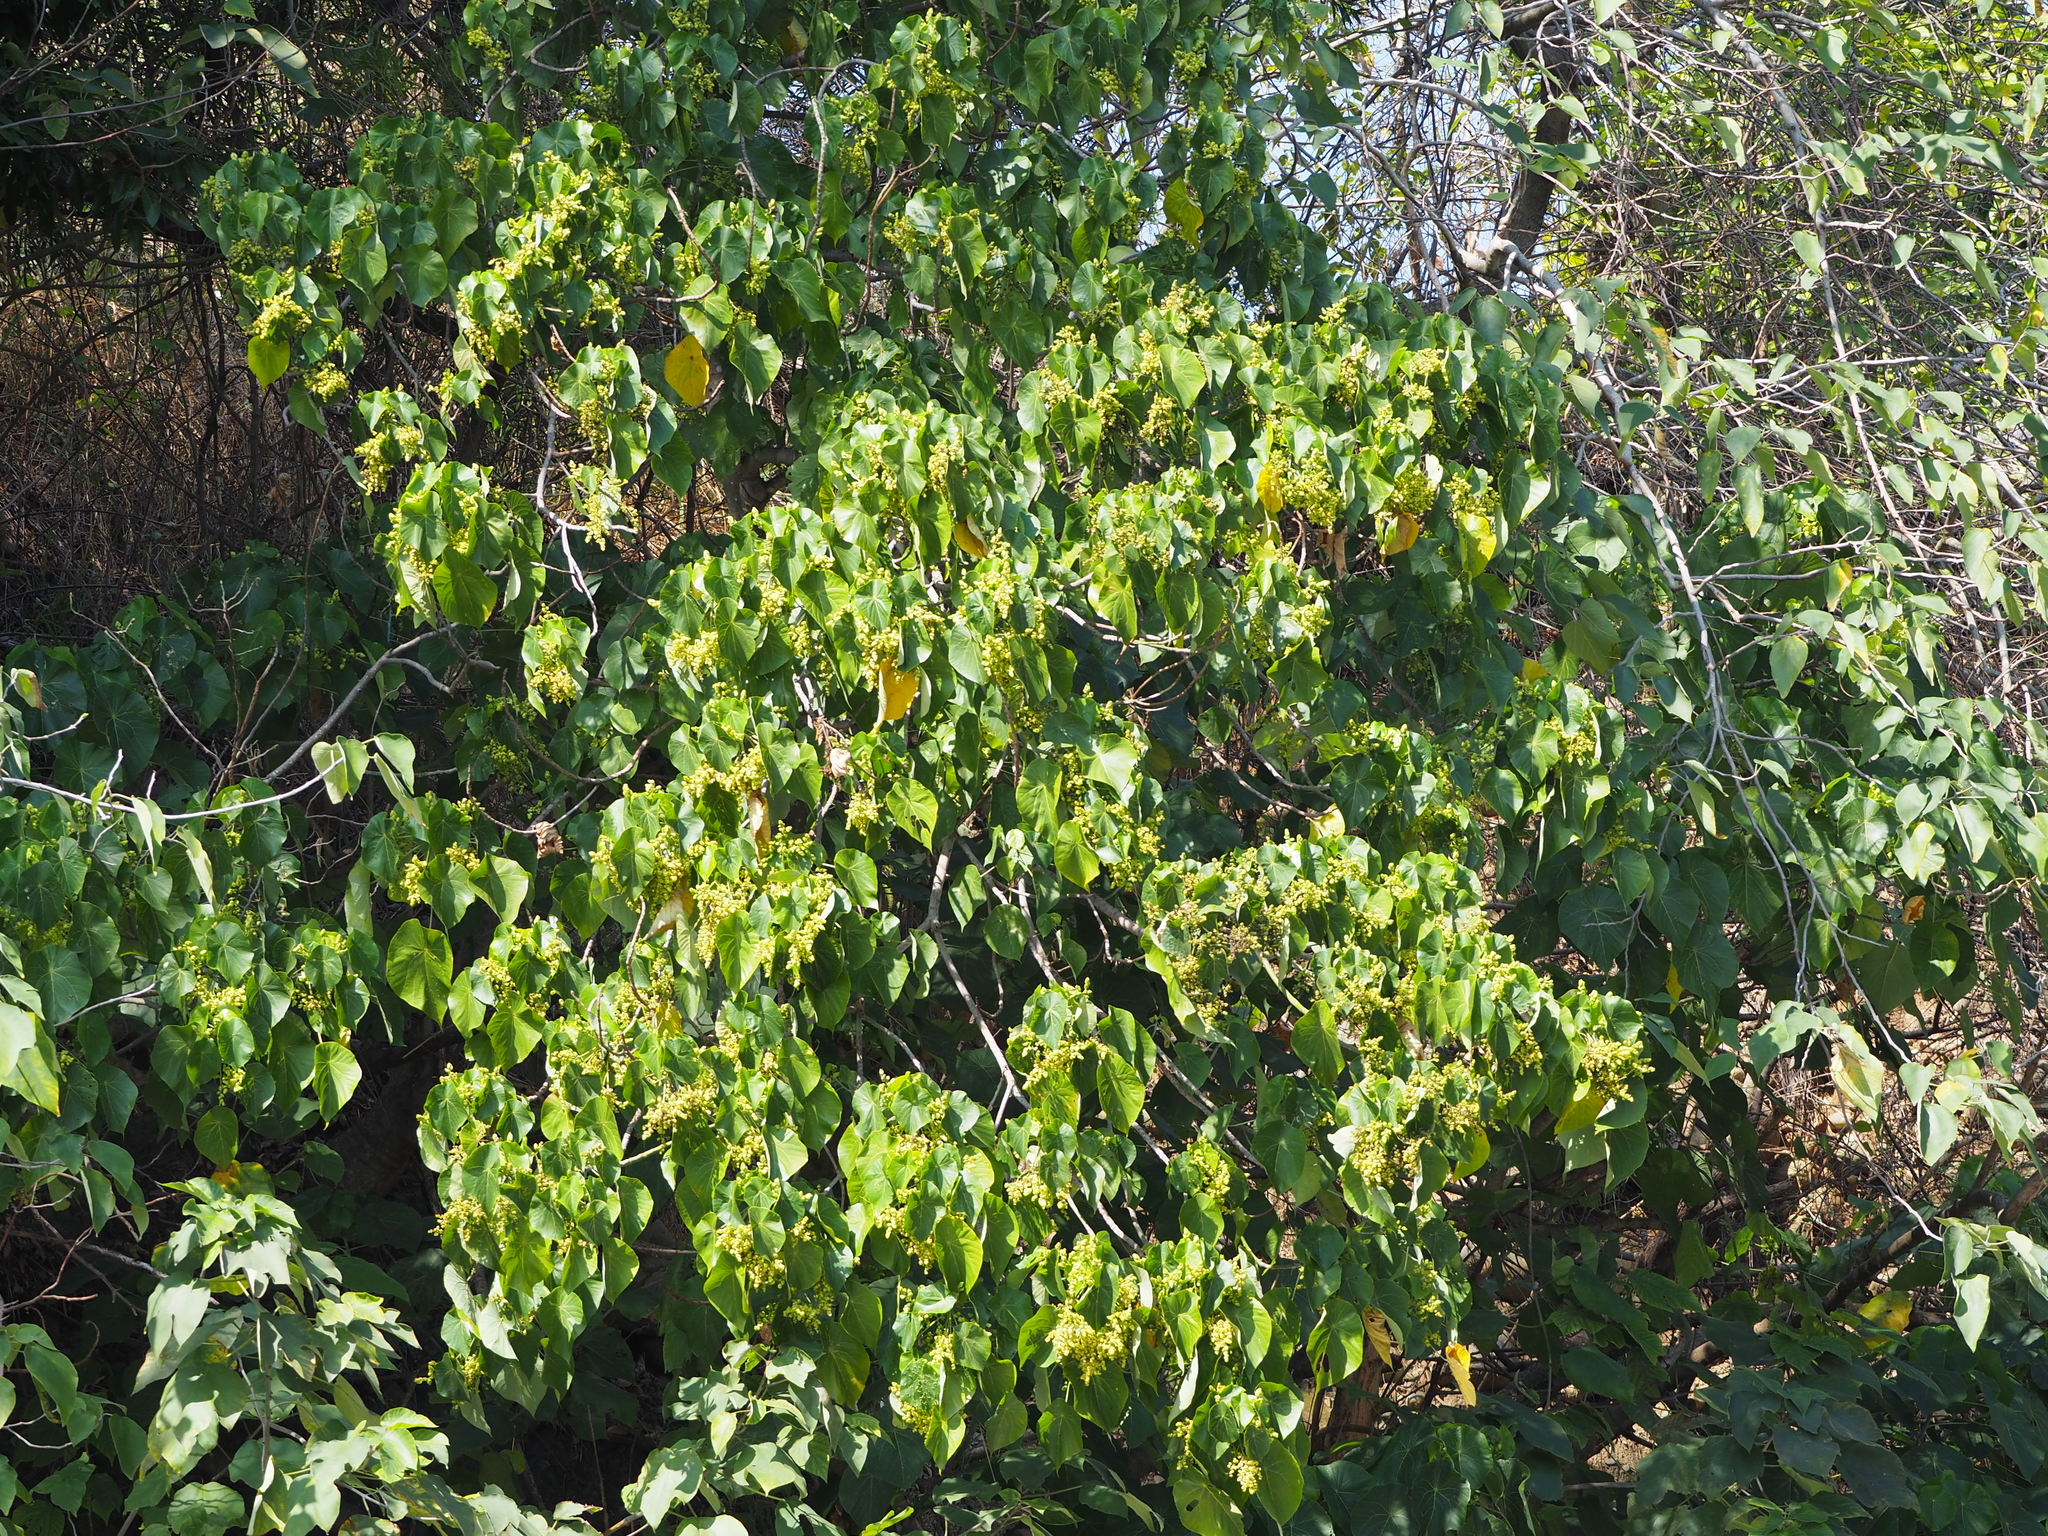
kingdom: Plantae
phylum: Tracheophyta
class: Magnoliopsida
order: Malpighiales
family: Euphorbiaceae
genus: Macaranga
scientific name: Macaranga tanarius
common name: Parasol leaf tree
